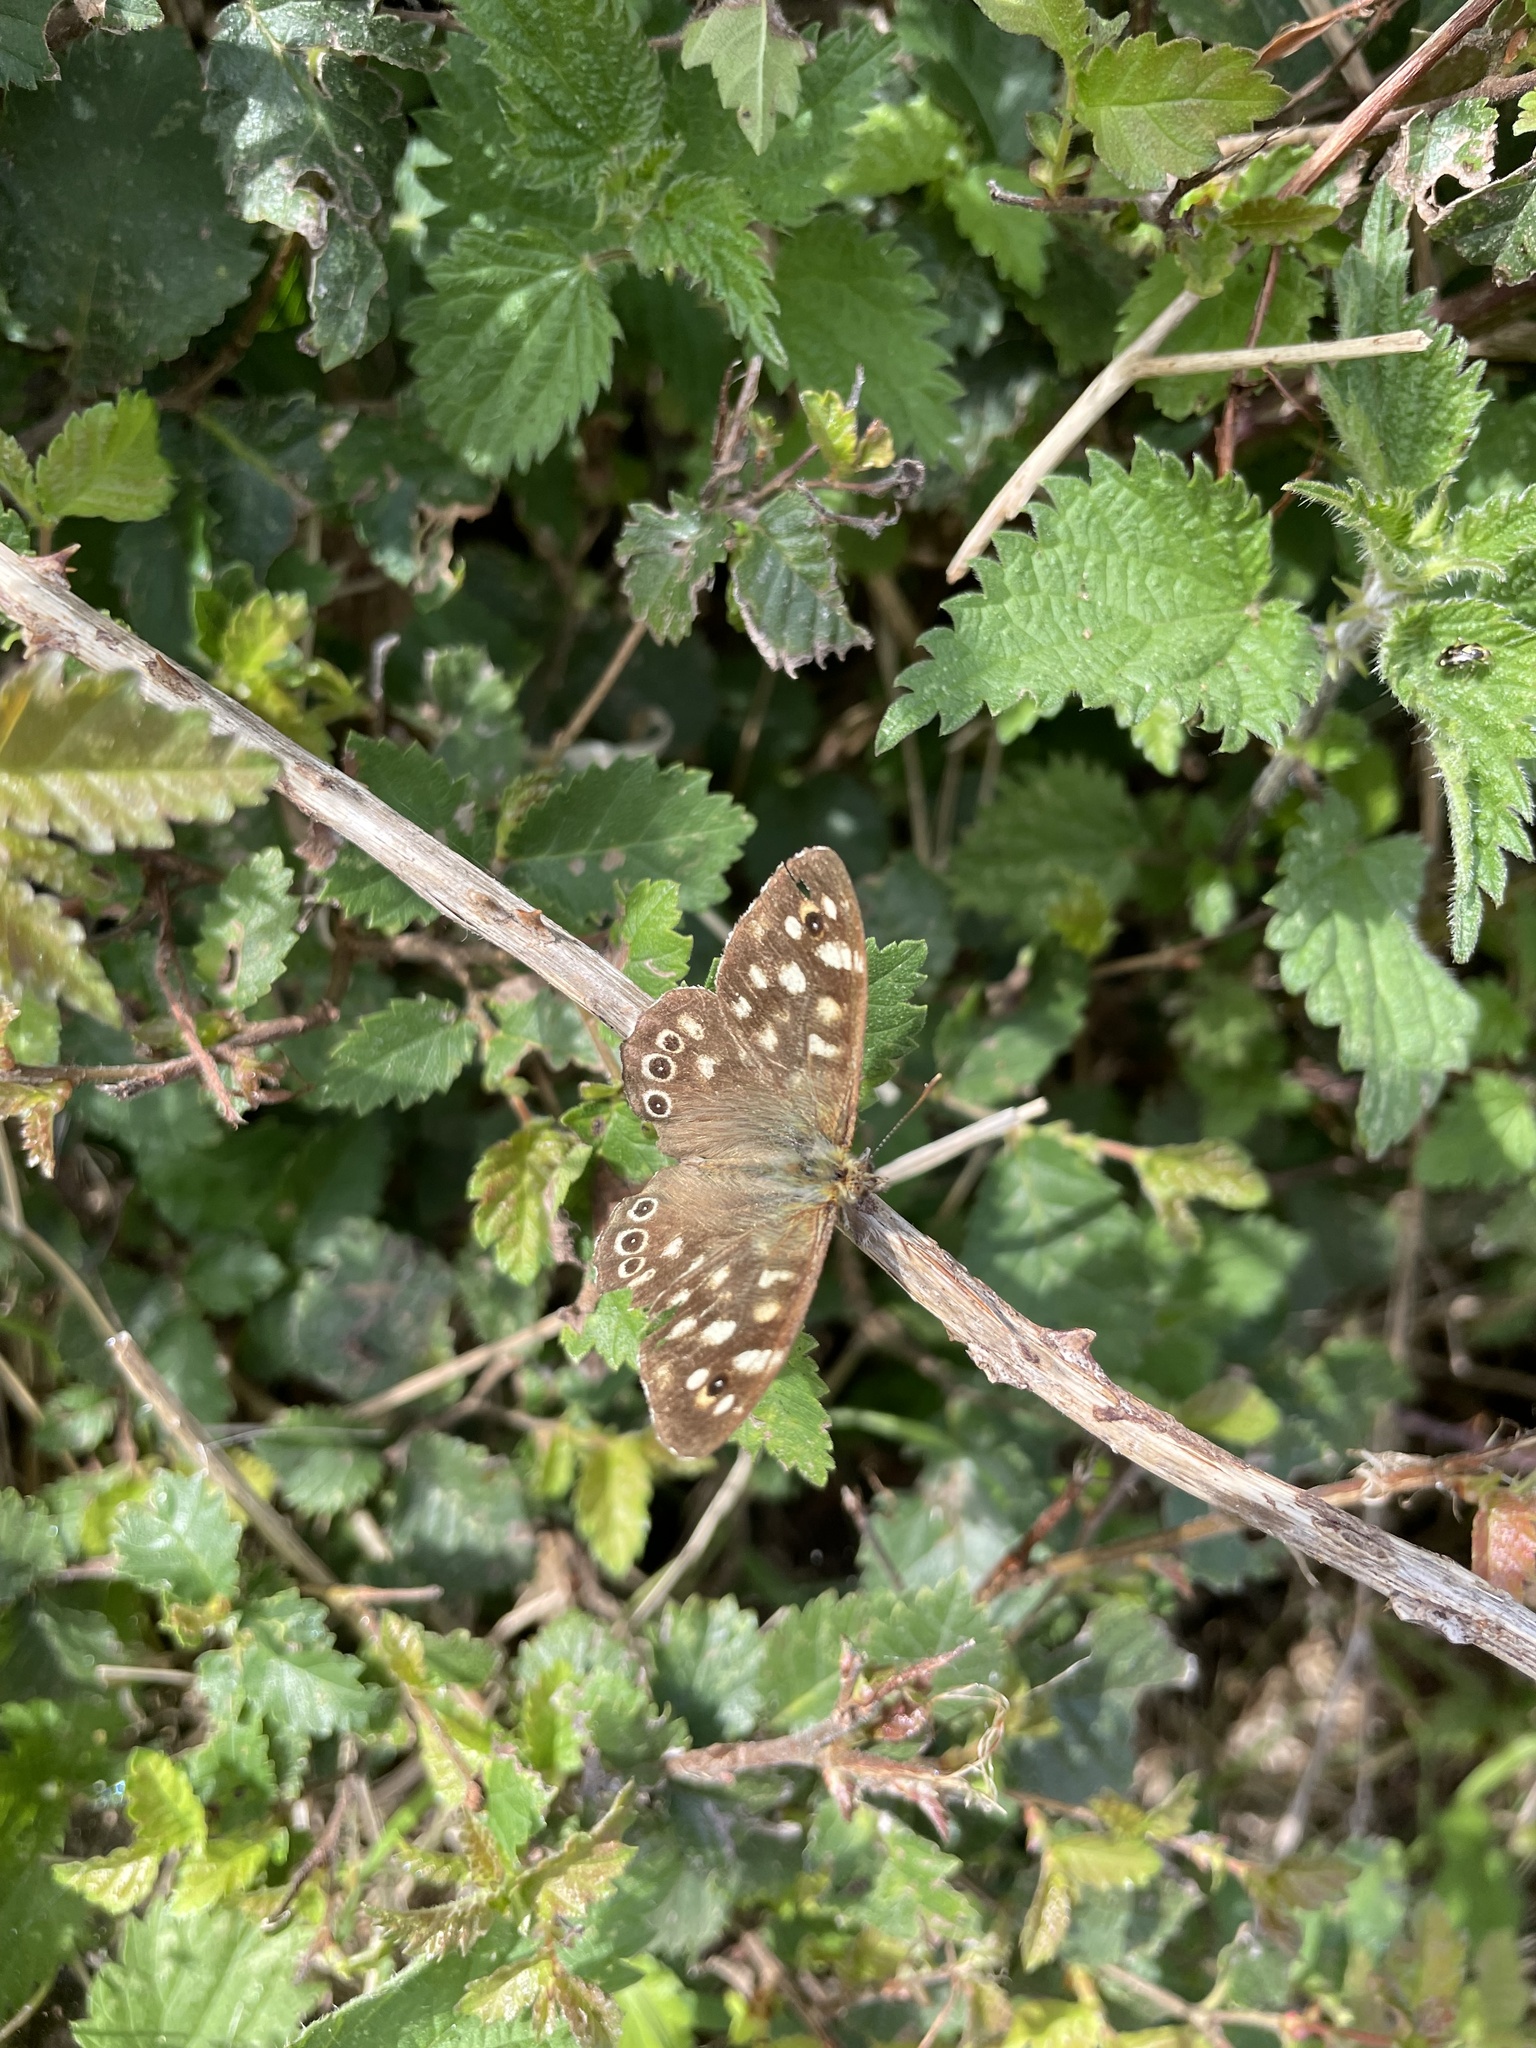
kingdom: Animalia
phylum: Arthropoda
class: Insecta
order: Lepidoptera
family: Nymphalidae
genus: Pararge
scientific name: Pararge aegeria
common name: Speckled wood
